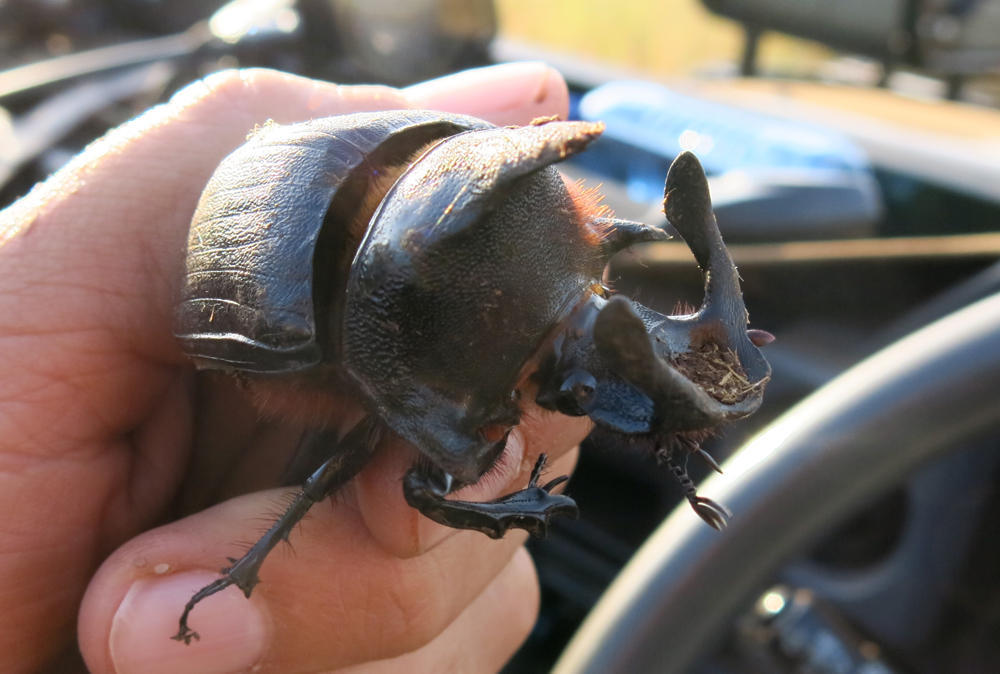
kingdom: Animalia
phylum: Arthropoda
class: Insecta
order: Coleoptera
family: Scarabaeidae
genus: Heliocopris
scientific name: Heliocopris andersoni
